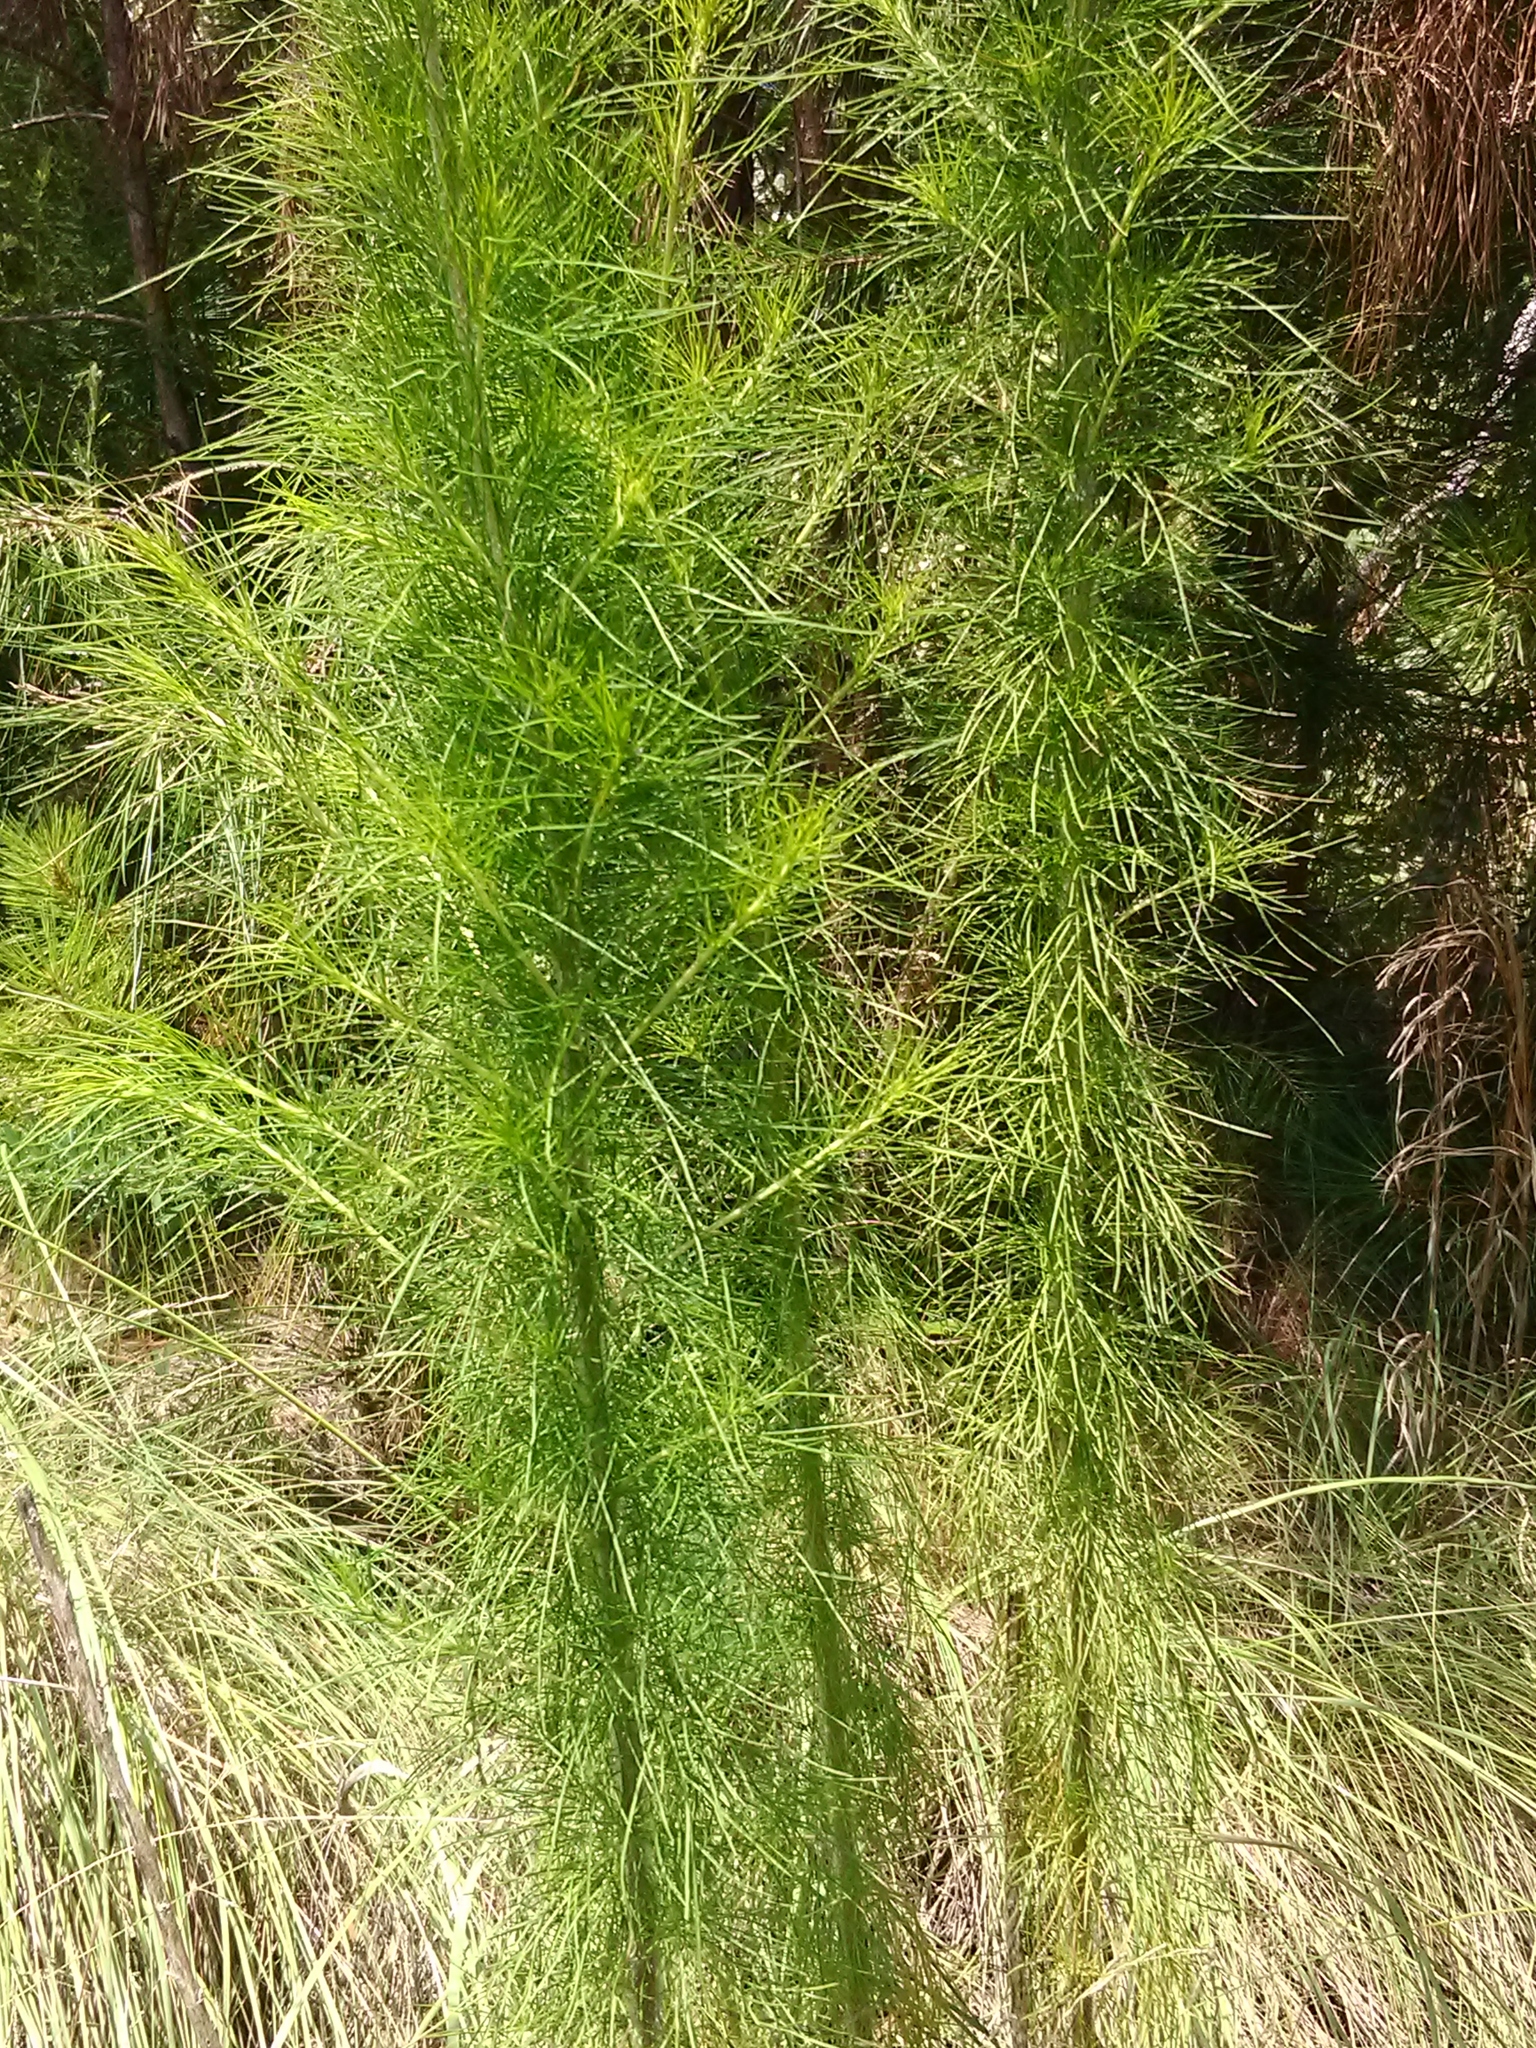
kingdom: Plantae
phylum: Tracheophyta
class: Magnoliopsida
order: Asterales
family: Asteraceae
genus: Eupatorium
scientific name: Eupatorium capillifolium
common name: Dog-fennel
